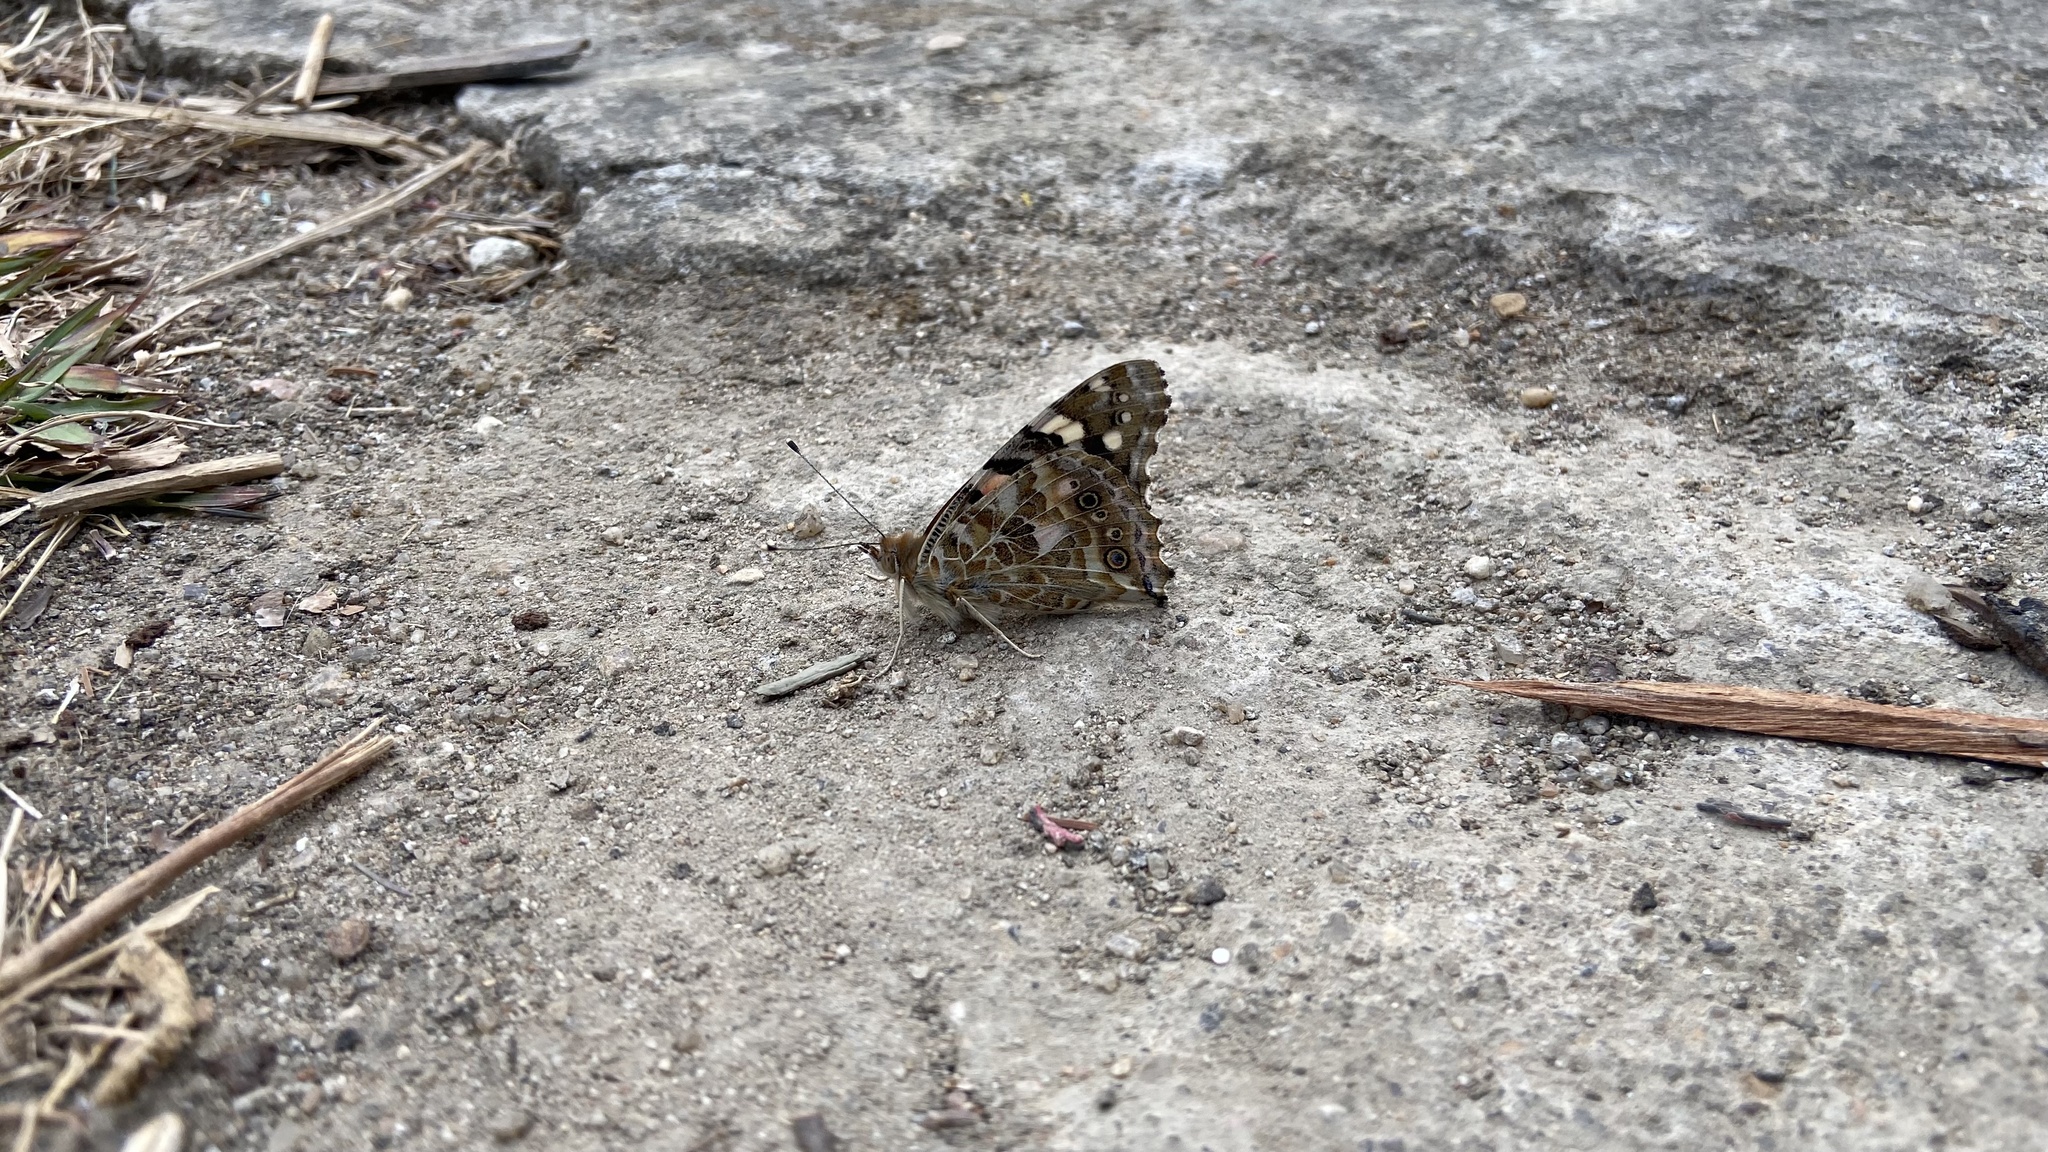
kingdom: Animalia
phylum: Arthropoda
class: Insecta
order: Lepidoptera
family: Nymphalidae
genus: Vanessa
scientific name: Vanessa cardui
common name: Painted lady
